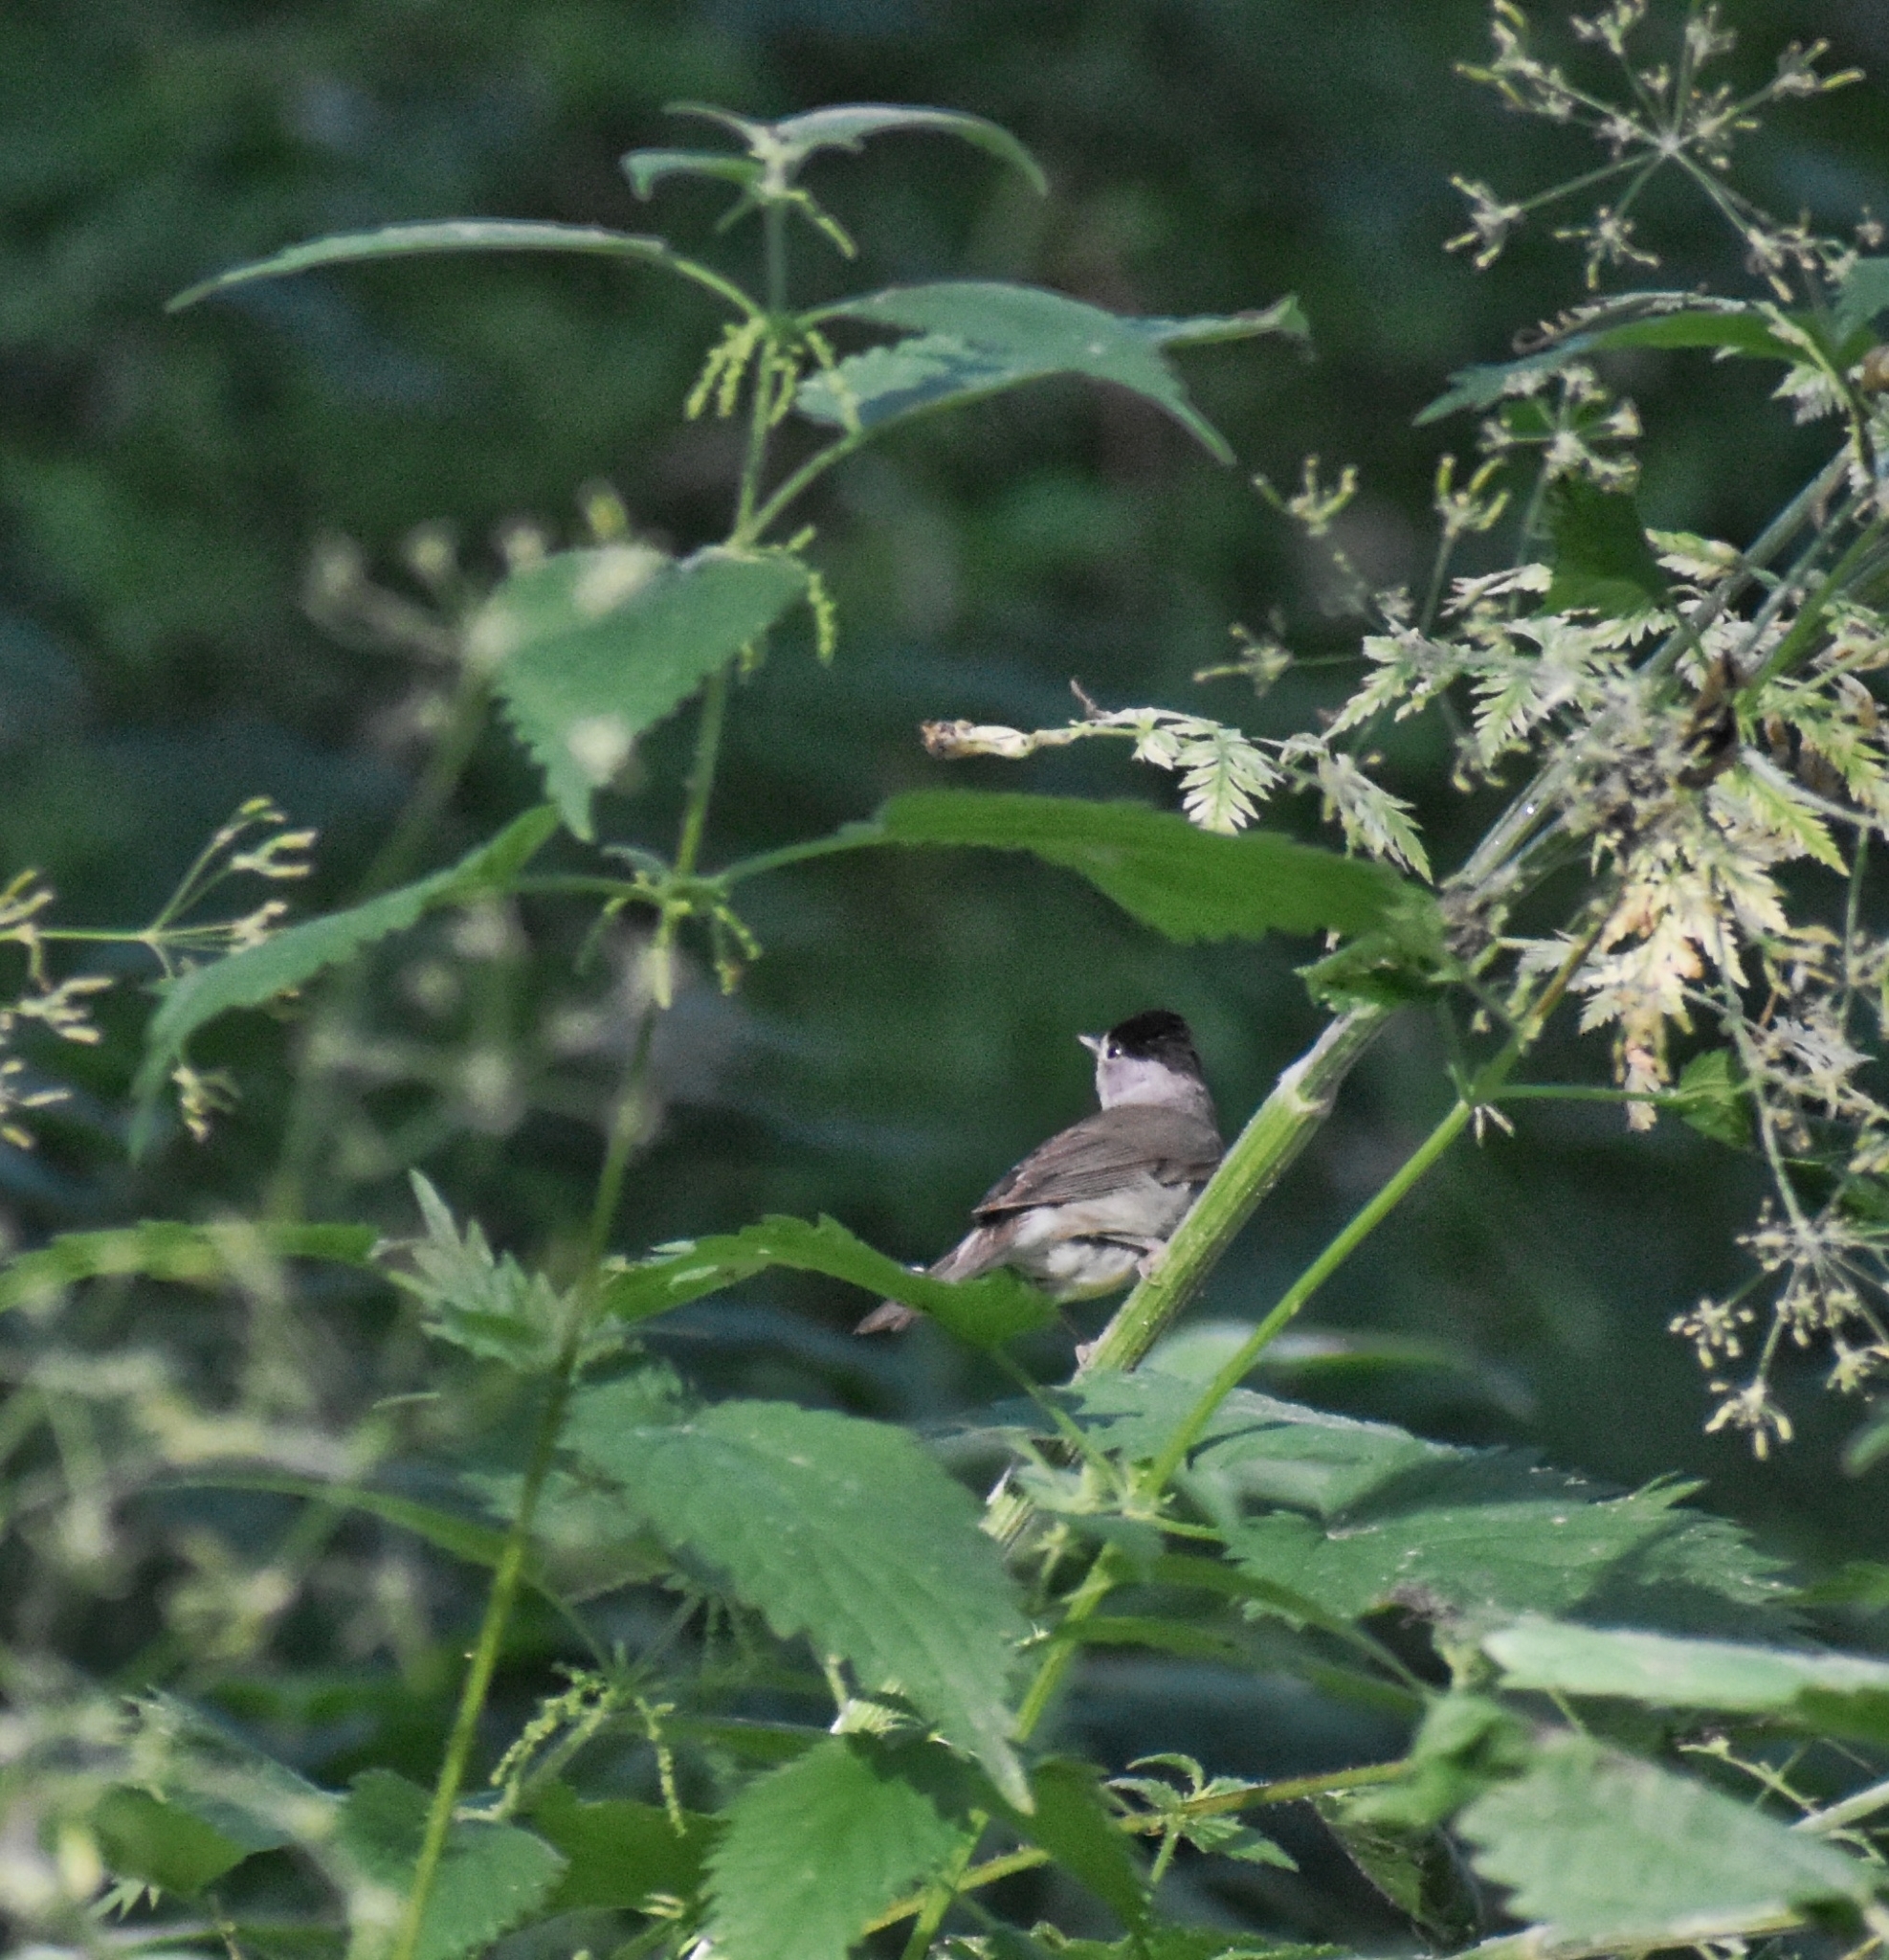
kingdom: Animalia
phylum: Chordata
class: Aves
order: Passeriformes
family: Sylviidae
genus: Sylvia
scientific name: Sylvia atricapilla
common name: Eurasian blackcap
